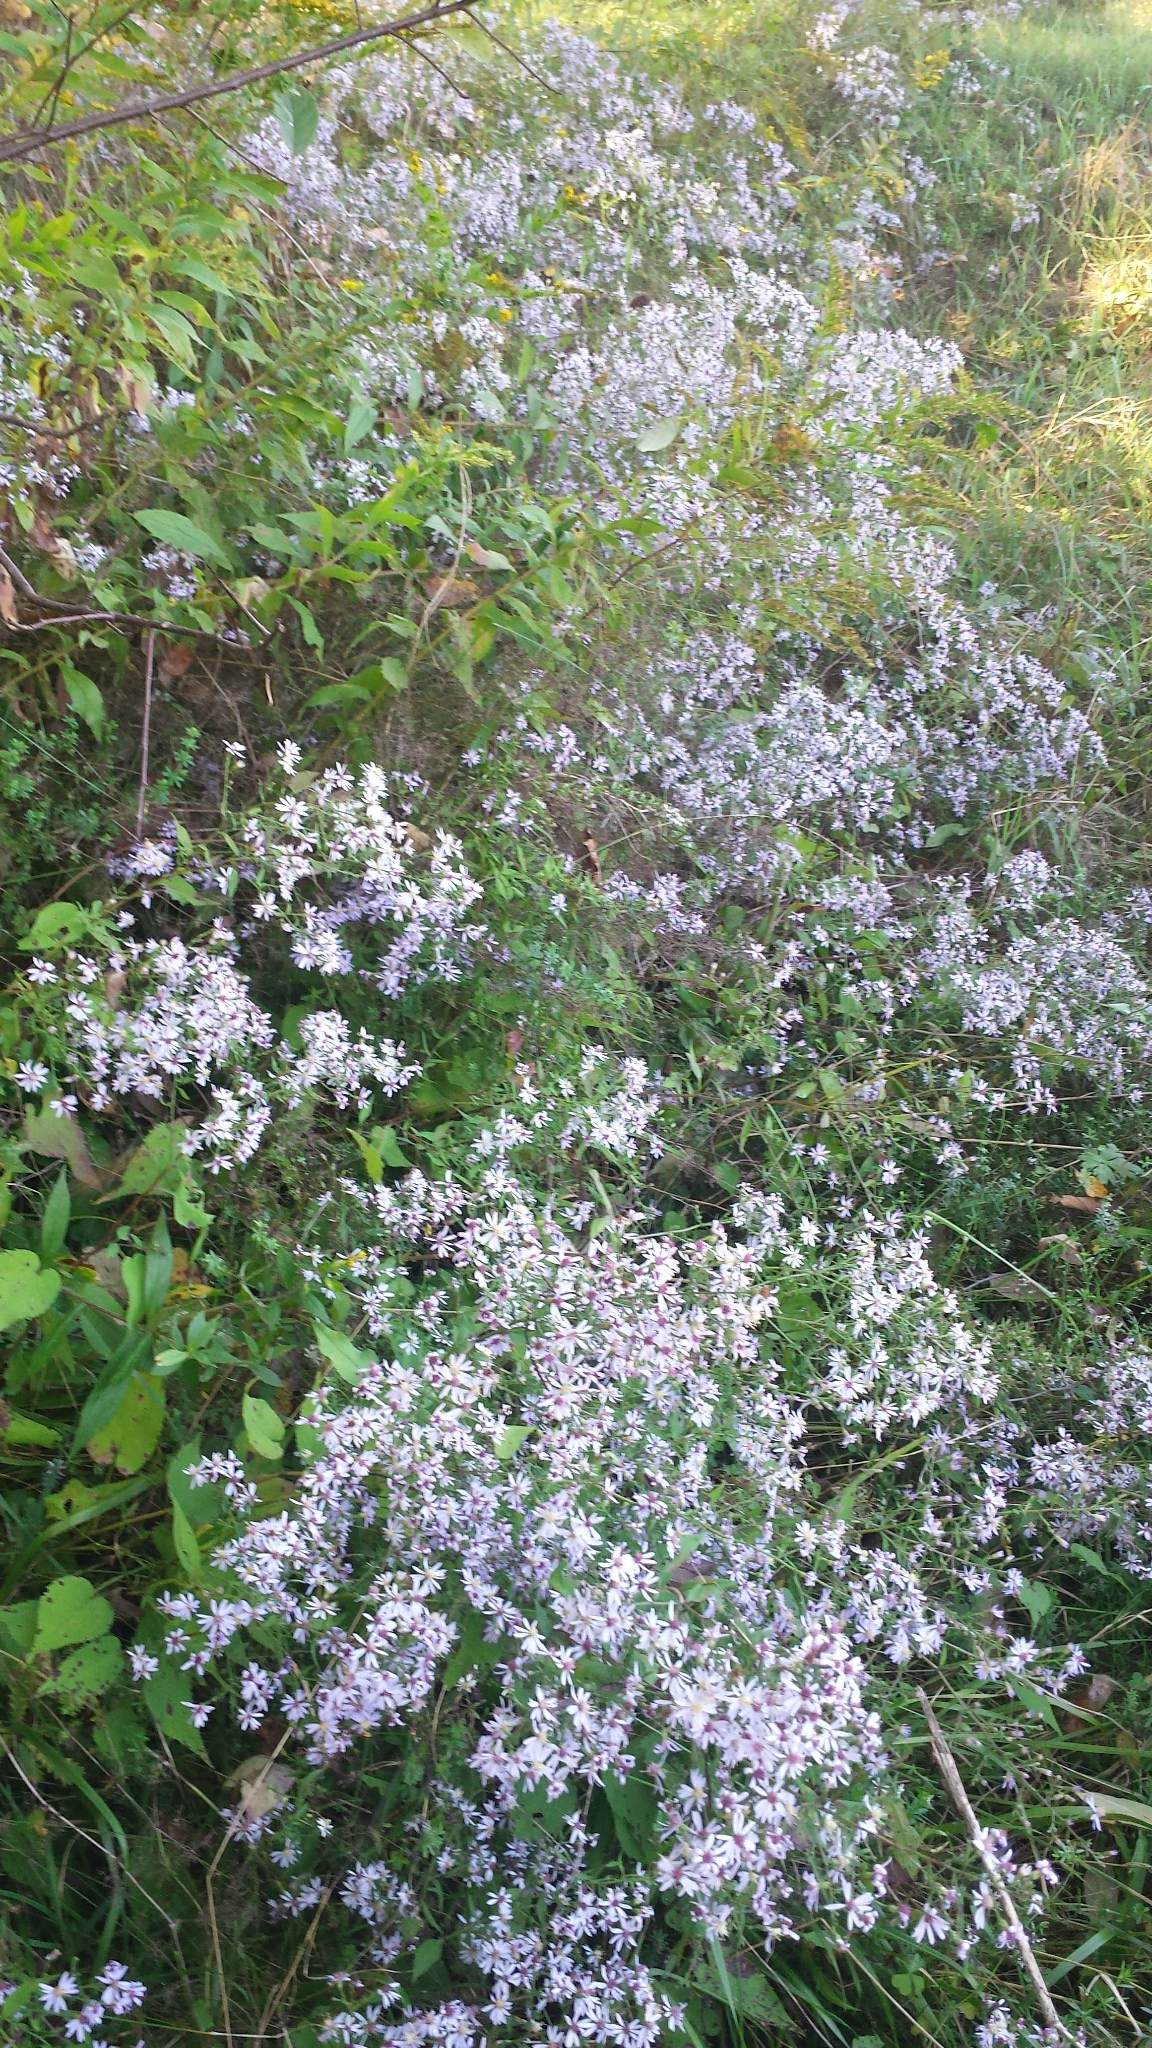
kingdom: Plantae
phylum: Tracheophyta
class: Magnoliopsida
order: Asterales
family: Asteraceae
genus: Symphyotrichum
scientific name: Symphyotrichum cordifolium
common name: Beeweed
